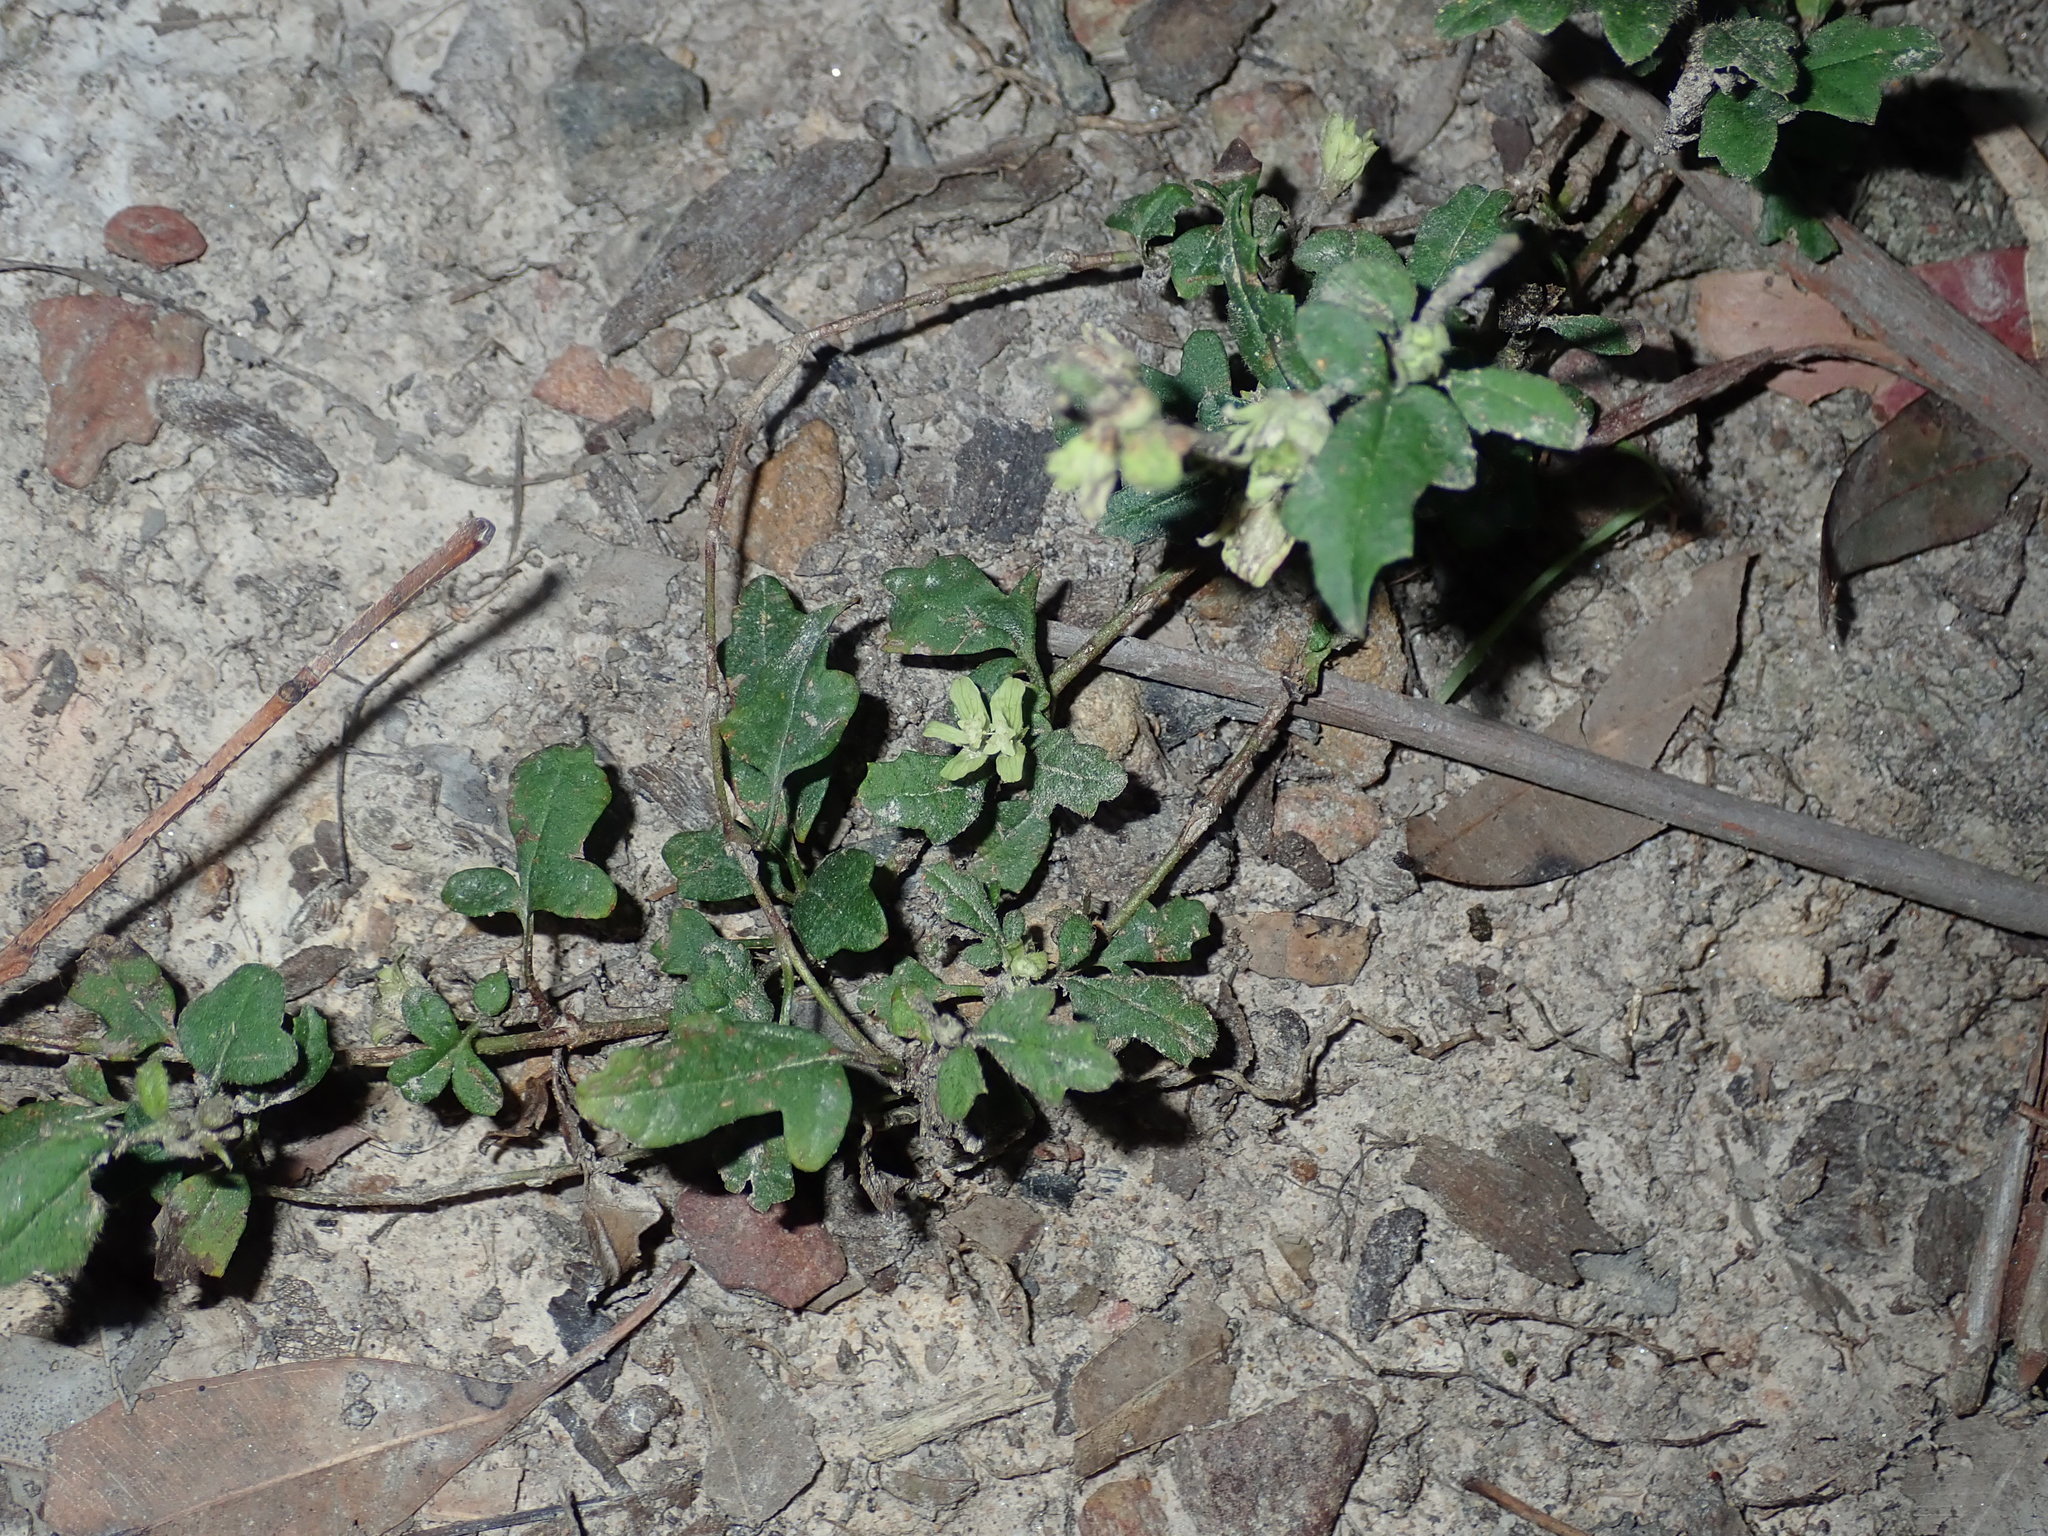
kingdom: Plantae
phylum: Tracheophyta
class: Magnoliopsida
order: Apiales
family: Apiaceae
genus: Xanthosia
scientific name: Xanthosia pilosa
